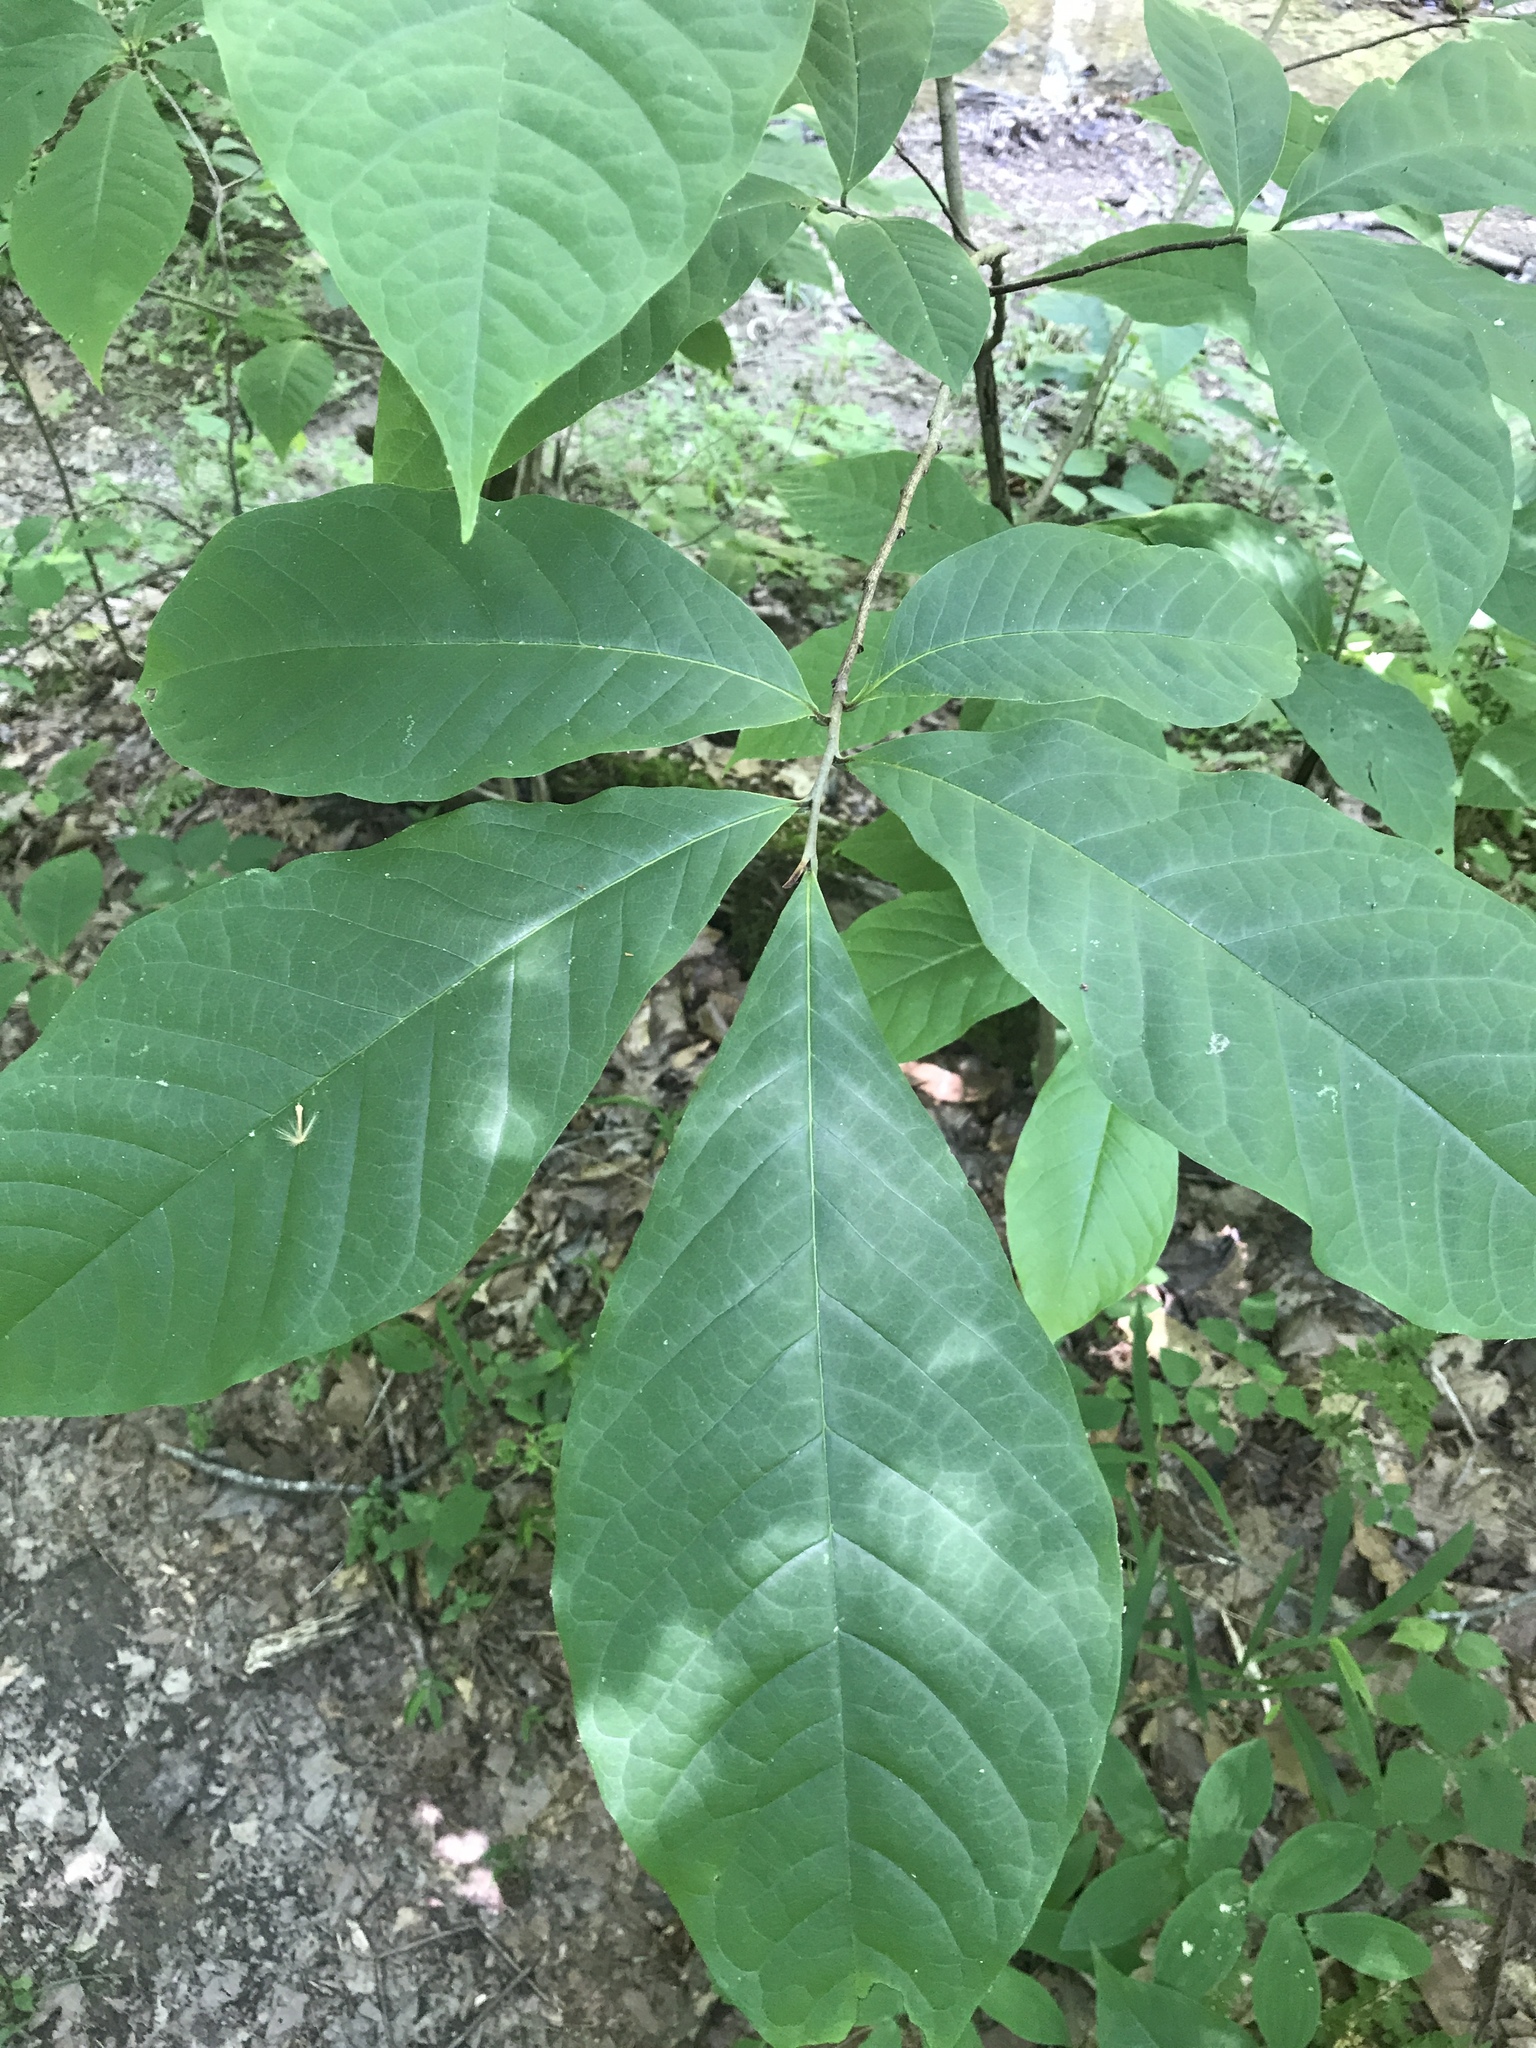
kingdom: Plantae
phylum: Tracheophyta
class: Magnoliopsida
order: Magnoliales
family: Annonaceae
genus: Asimina
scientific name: Asimina triloba
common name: Dog-banana
